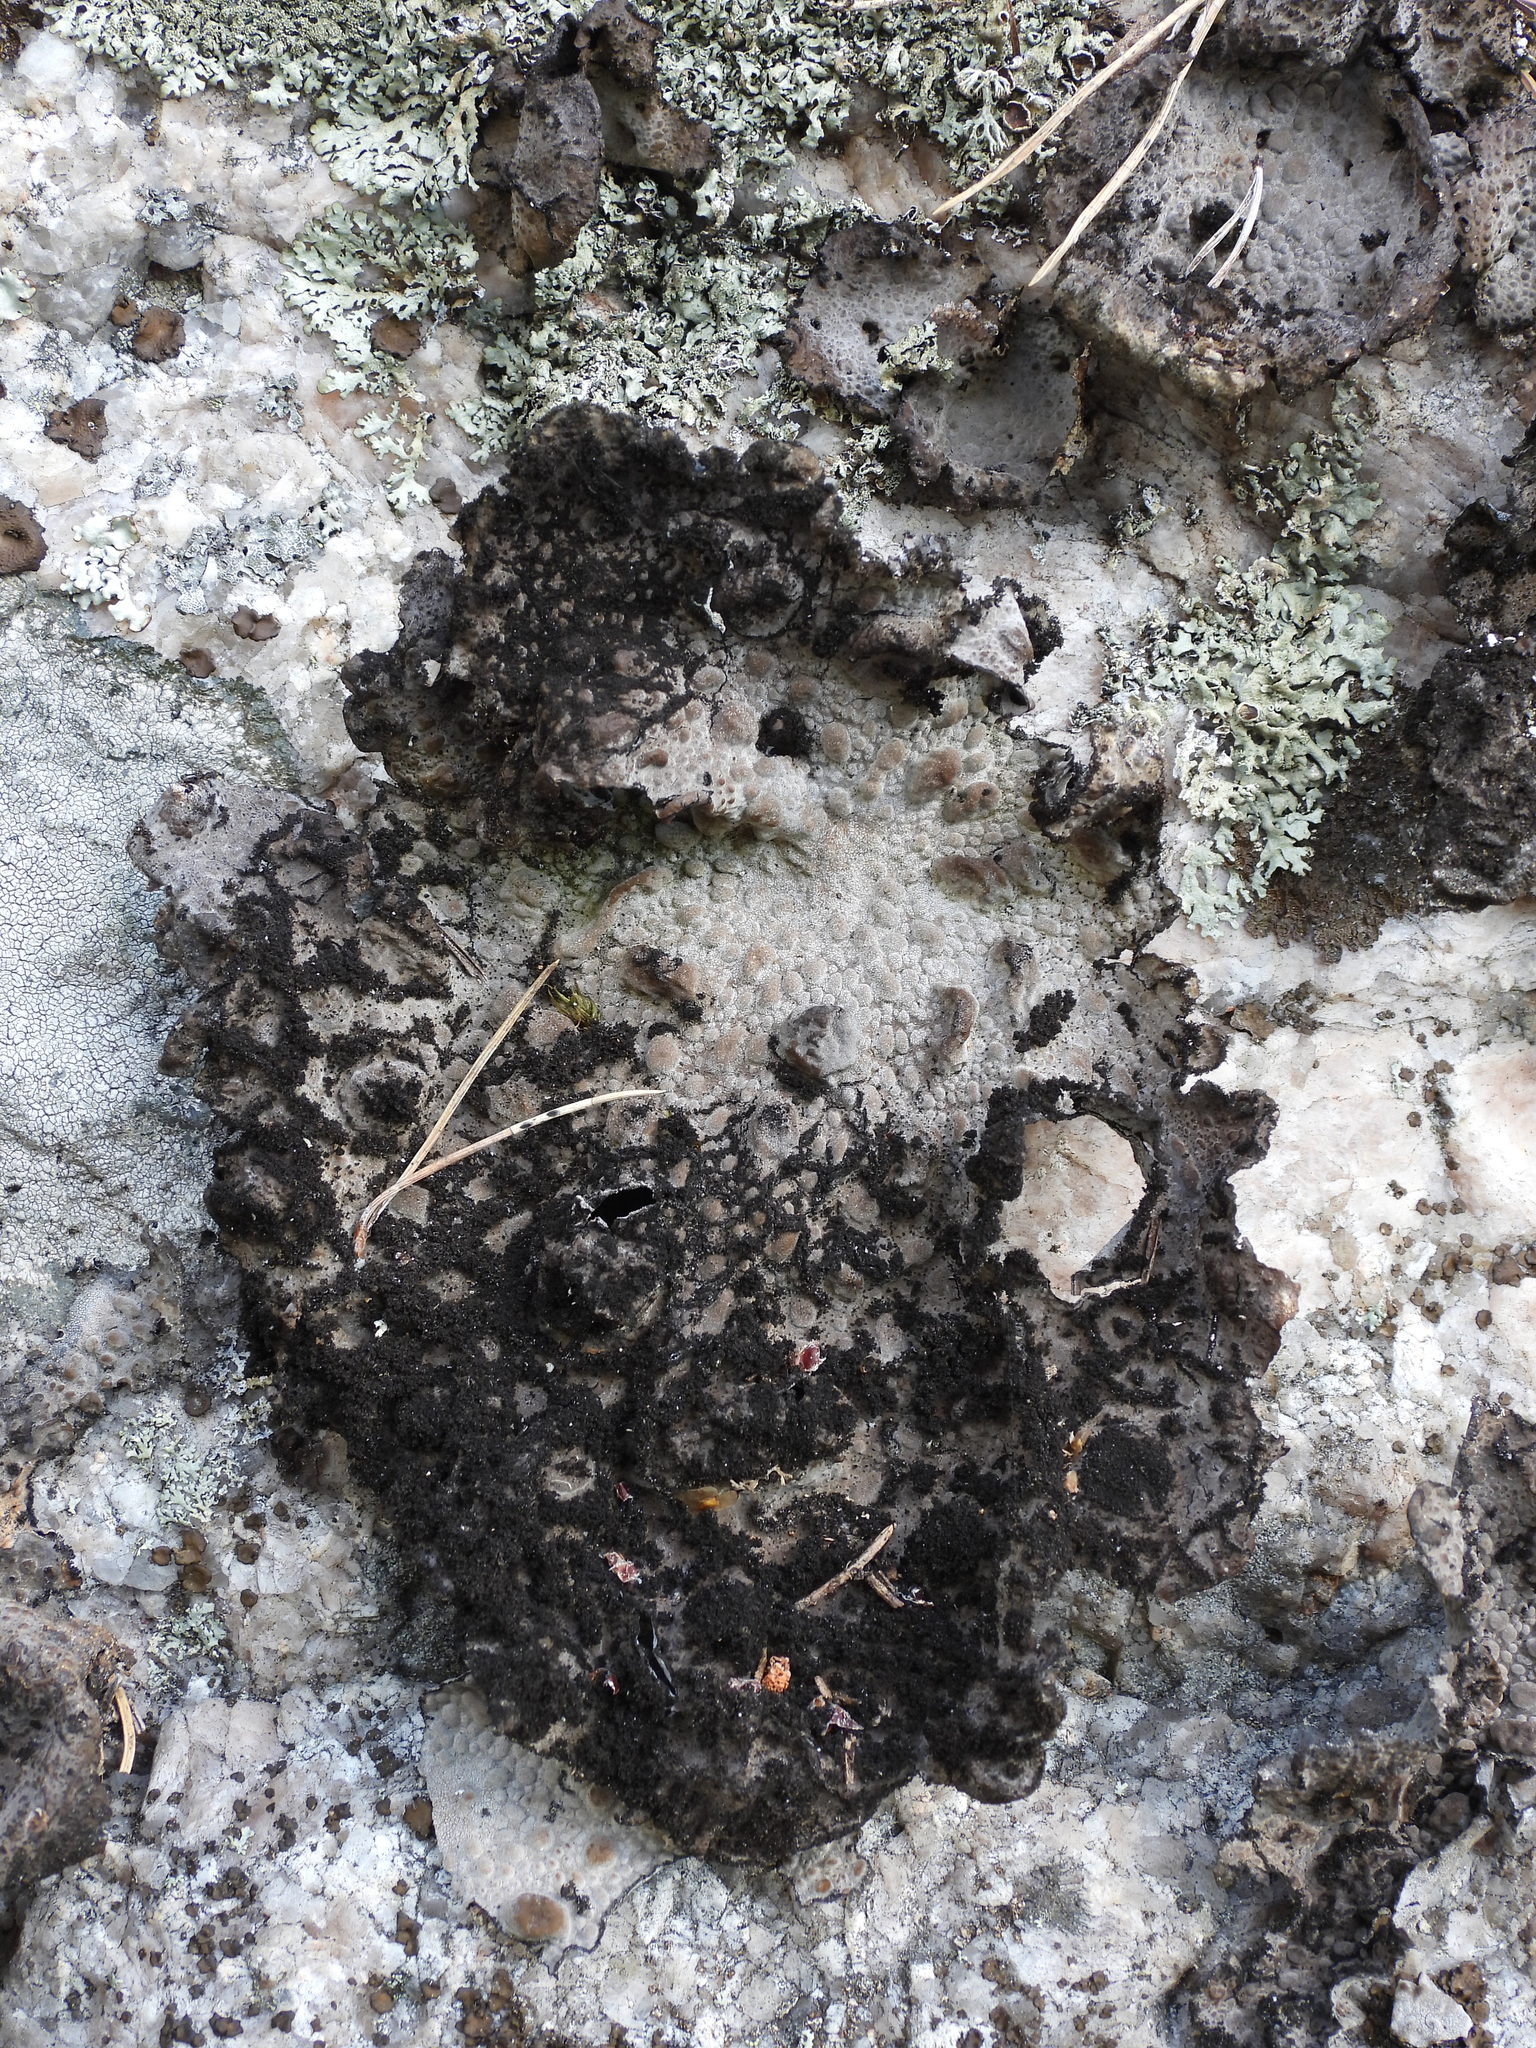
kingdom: Fungi
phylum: Ascomycota
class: Lecanoromycetes
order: Umbilicariales
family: Umbilicariaceae
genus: Lasallia
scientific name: Lasallia pustulata
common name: Blistered toadskin lichen
